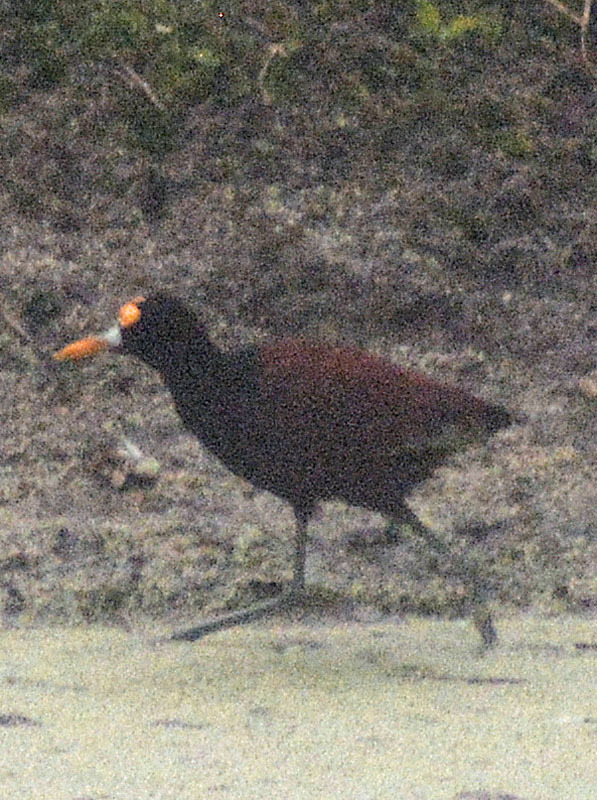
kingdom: Animalia
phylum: Chordata
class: Aves
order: Charadriiformes
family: Jacanidae
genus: Jacana
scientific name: Jacana spinosa
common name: Northern jacana
